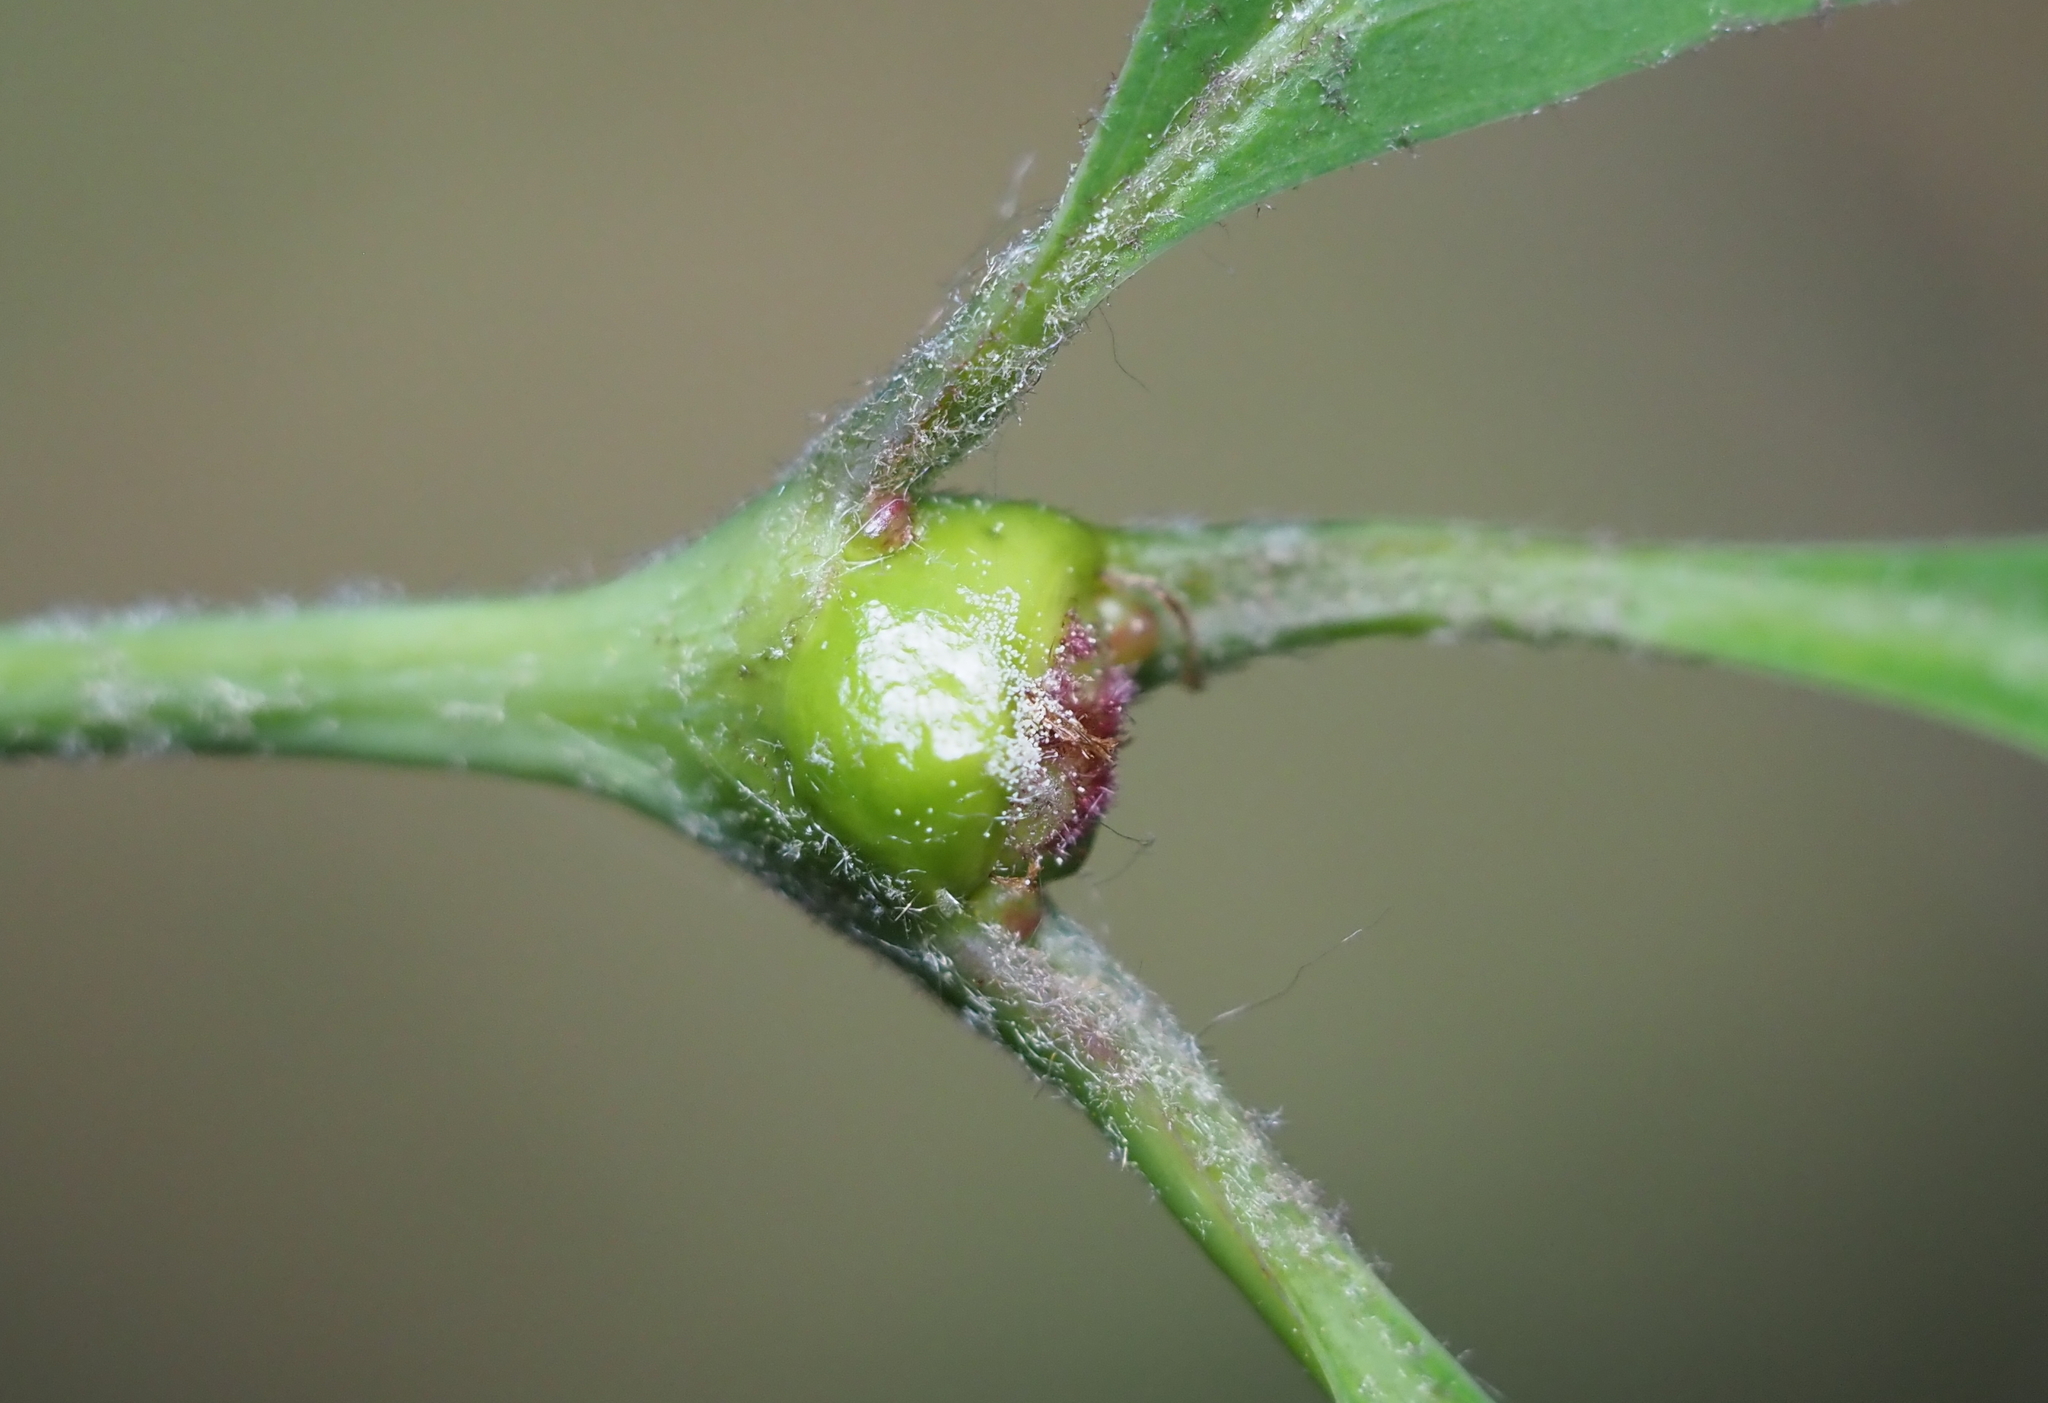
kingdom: Animalia
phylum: Arthropoda
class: Insecta
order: Hymenoptera
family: Cynipidae
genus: Callirhytis
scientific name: Callirhytis clavula
